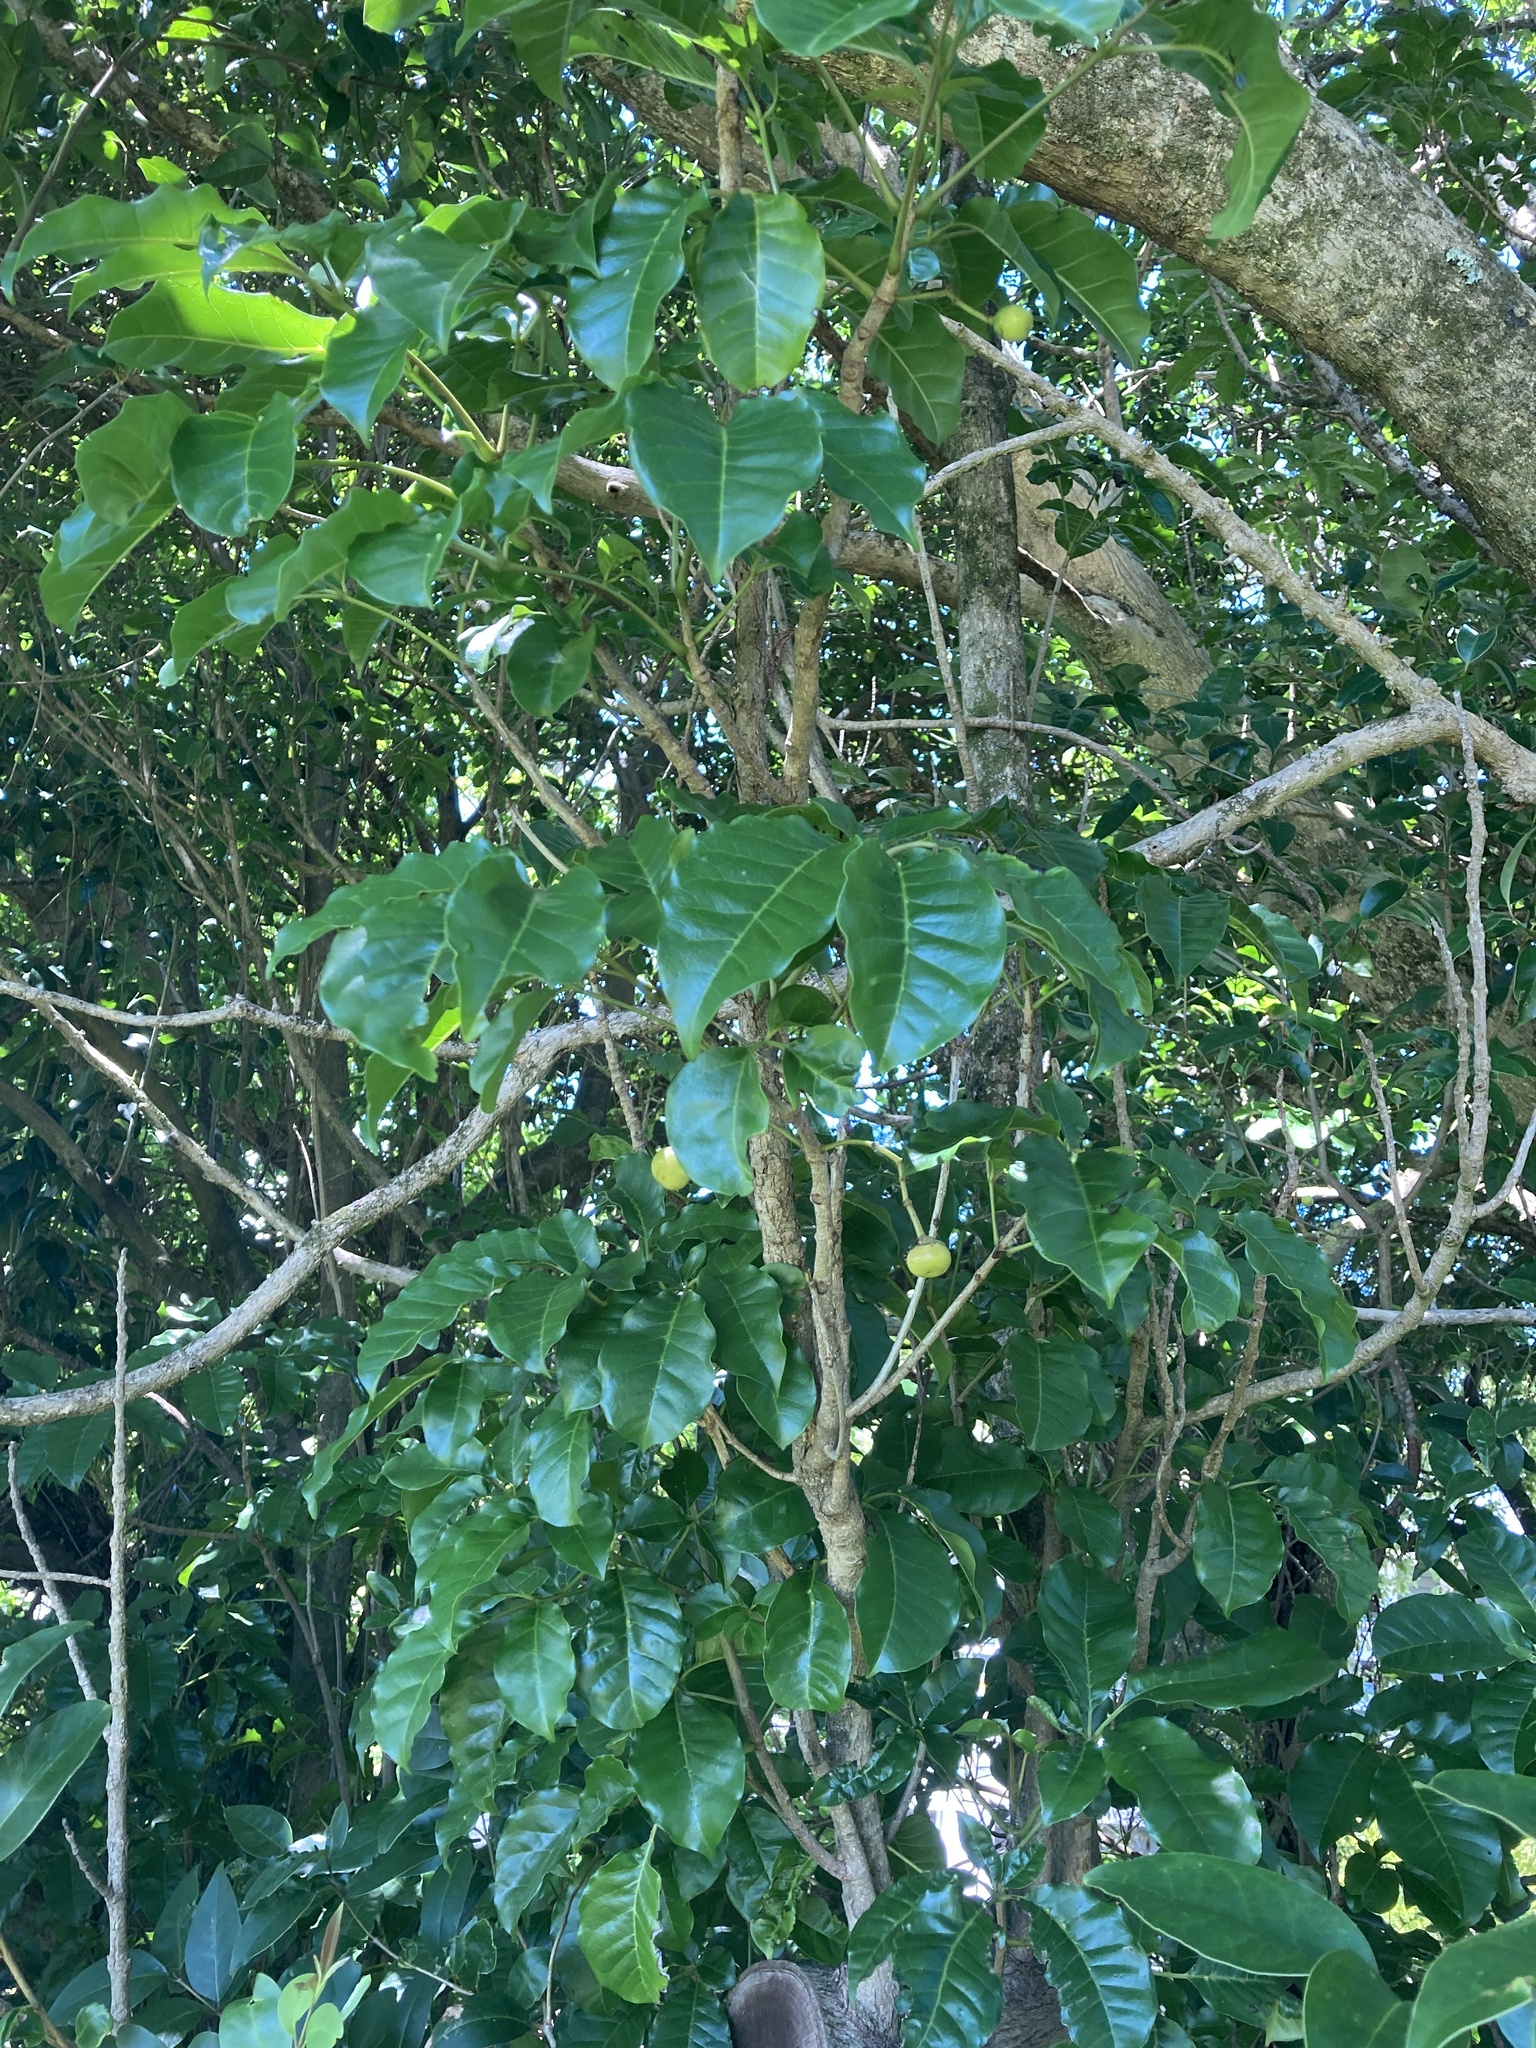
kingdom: Plantae
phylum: Tracheophyta
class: Magnoliopsida
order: Lamiales
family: Lamiaceae
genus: Vitex
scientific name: Vitex lucens
